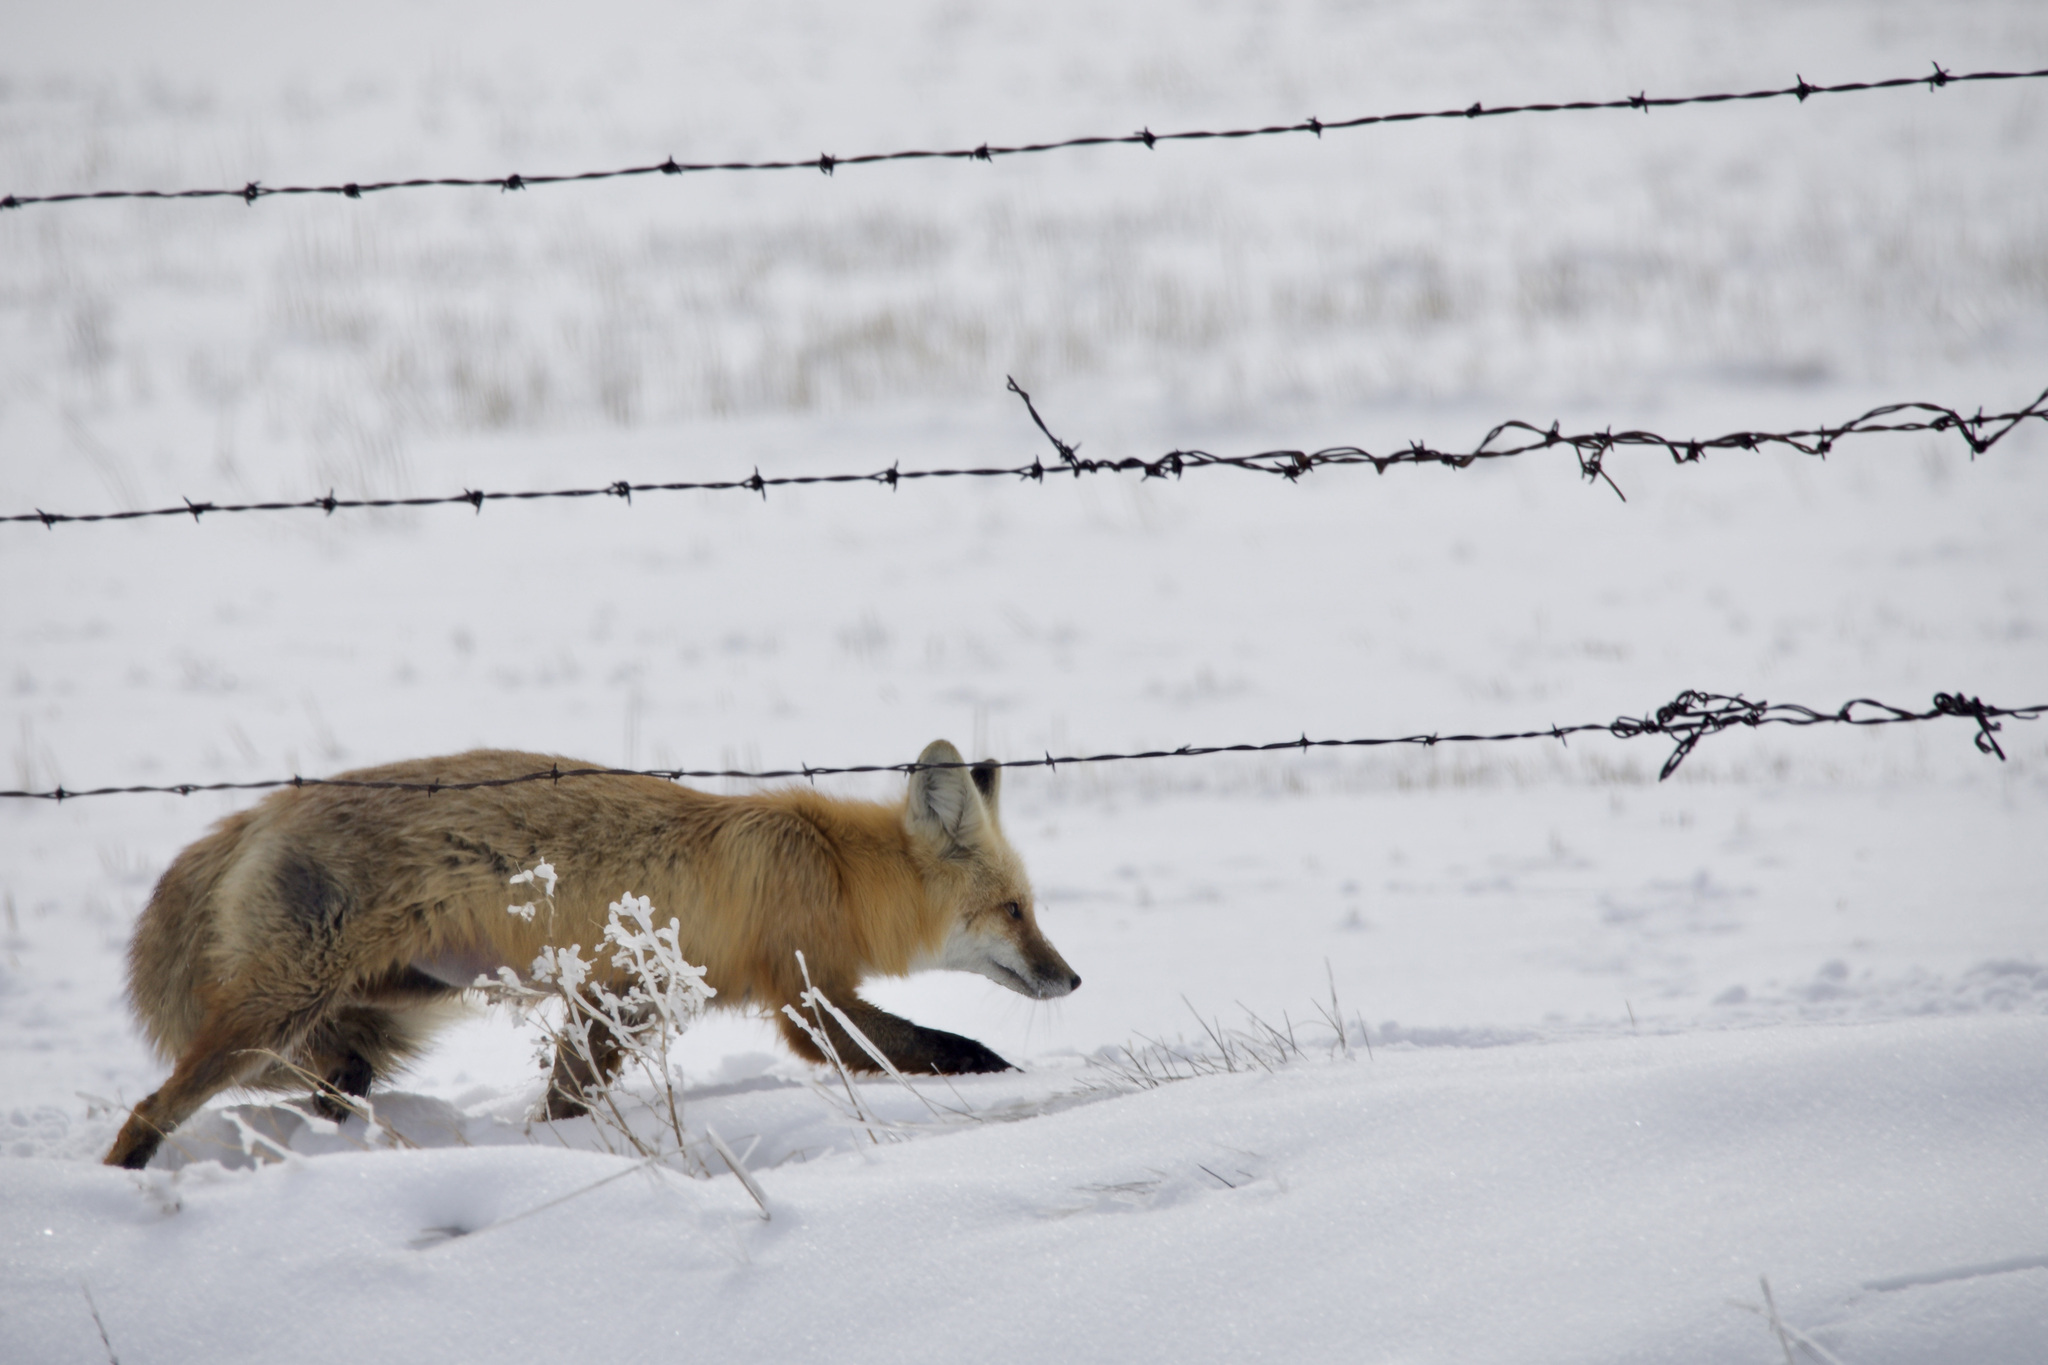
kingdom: Animalia
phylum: Chordata
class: Mammalia
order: Carnivora
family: Canidae
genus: Vulpes
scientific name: Vulpes vulpes
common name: Red fox
